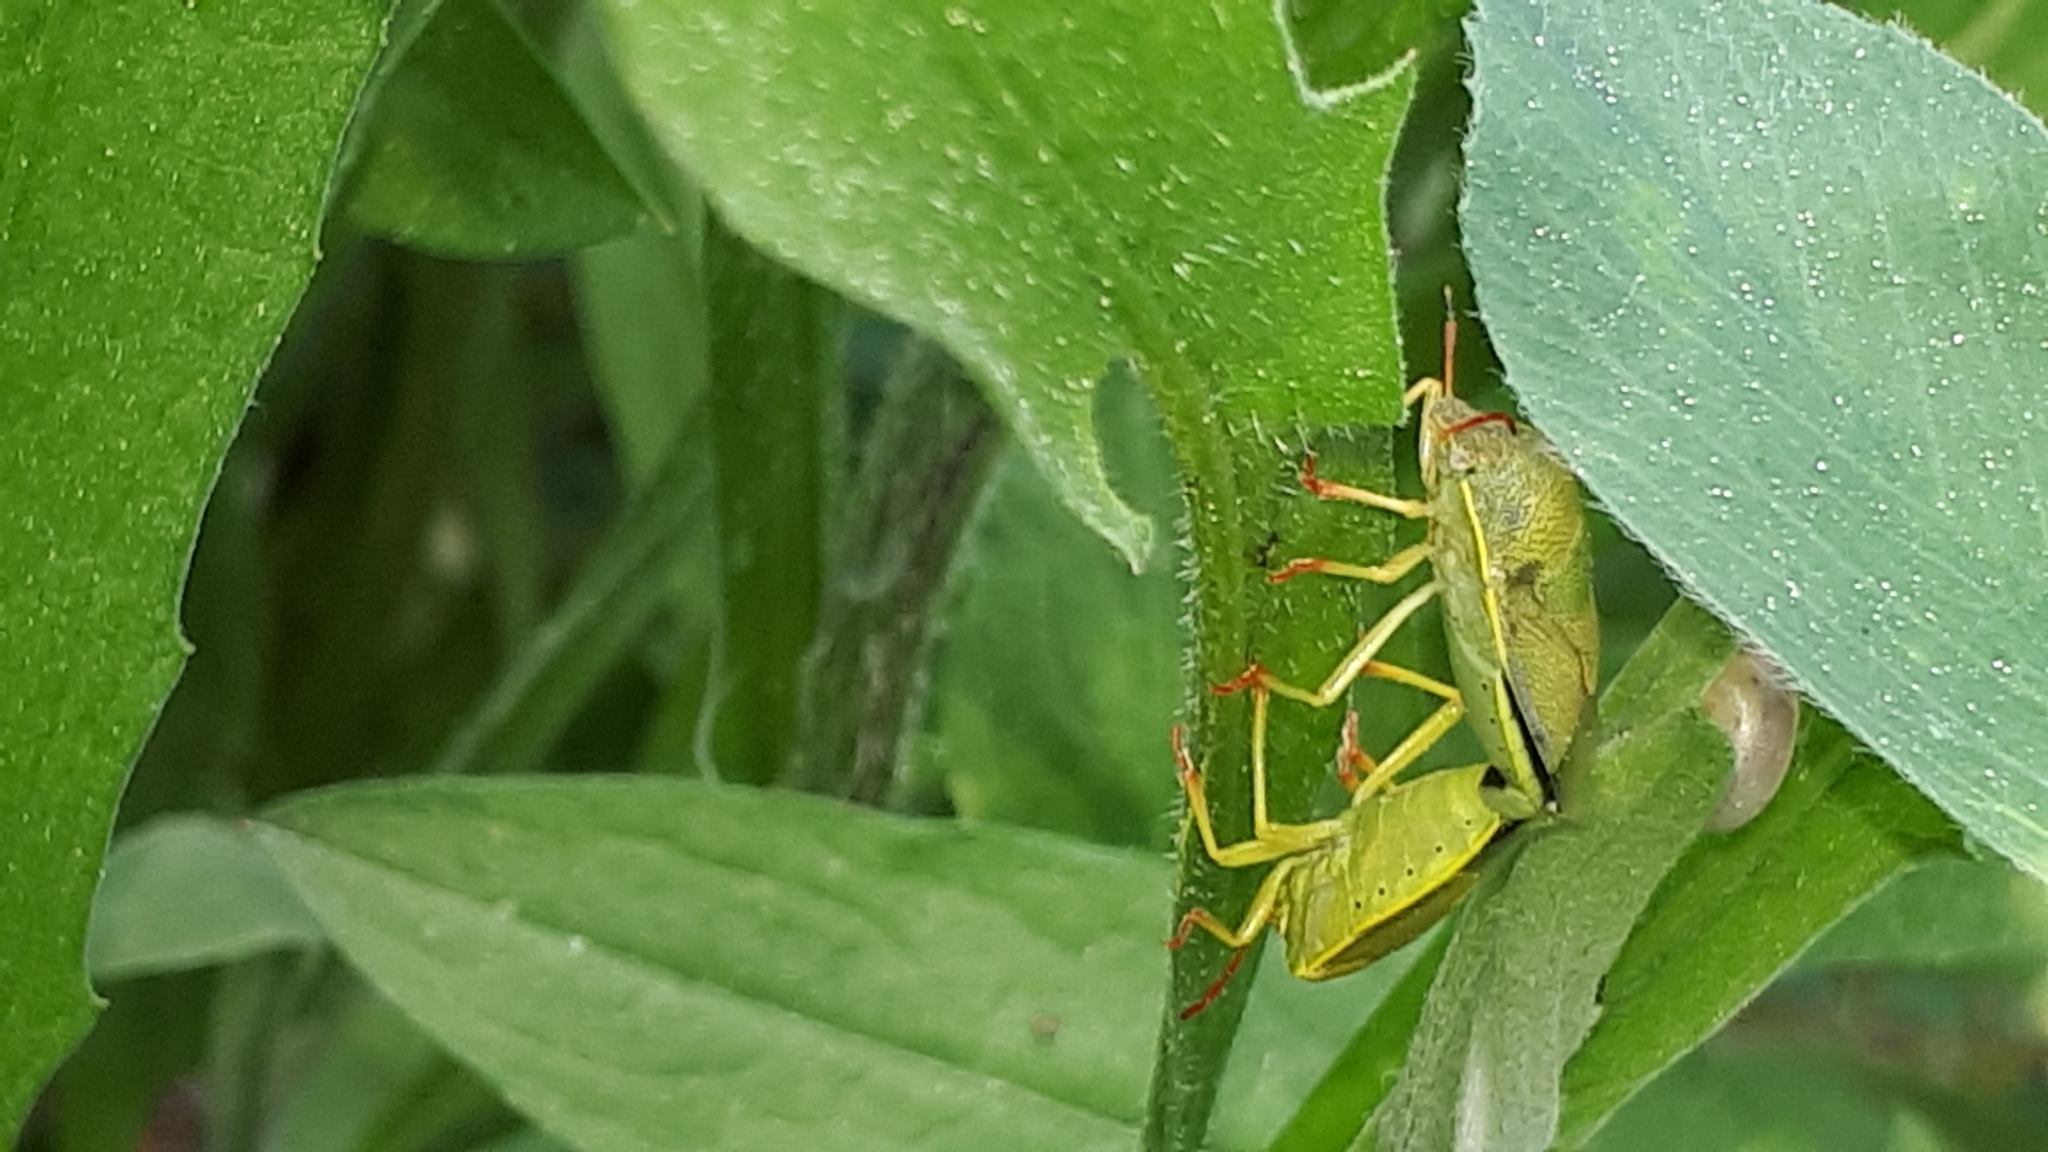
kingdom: Animalia
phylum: Arthropoda
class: Insecta
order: Hemiptera
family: Pentatomidae
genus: Piezodorus
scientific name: Piezodorus lituratus
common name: Stink bug
